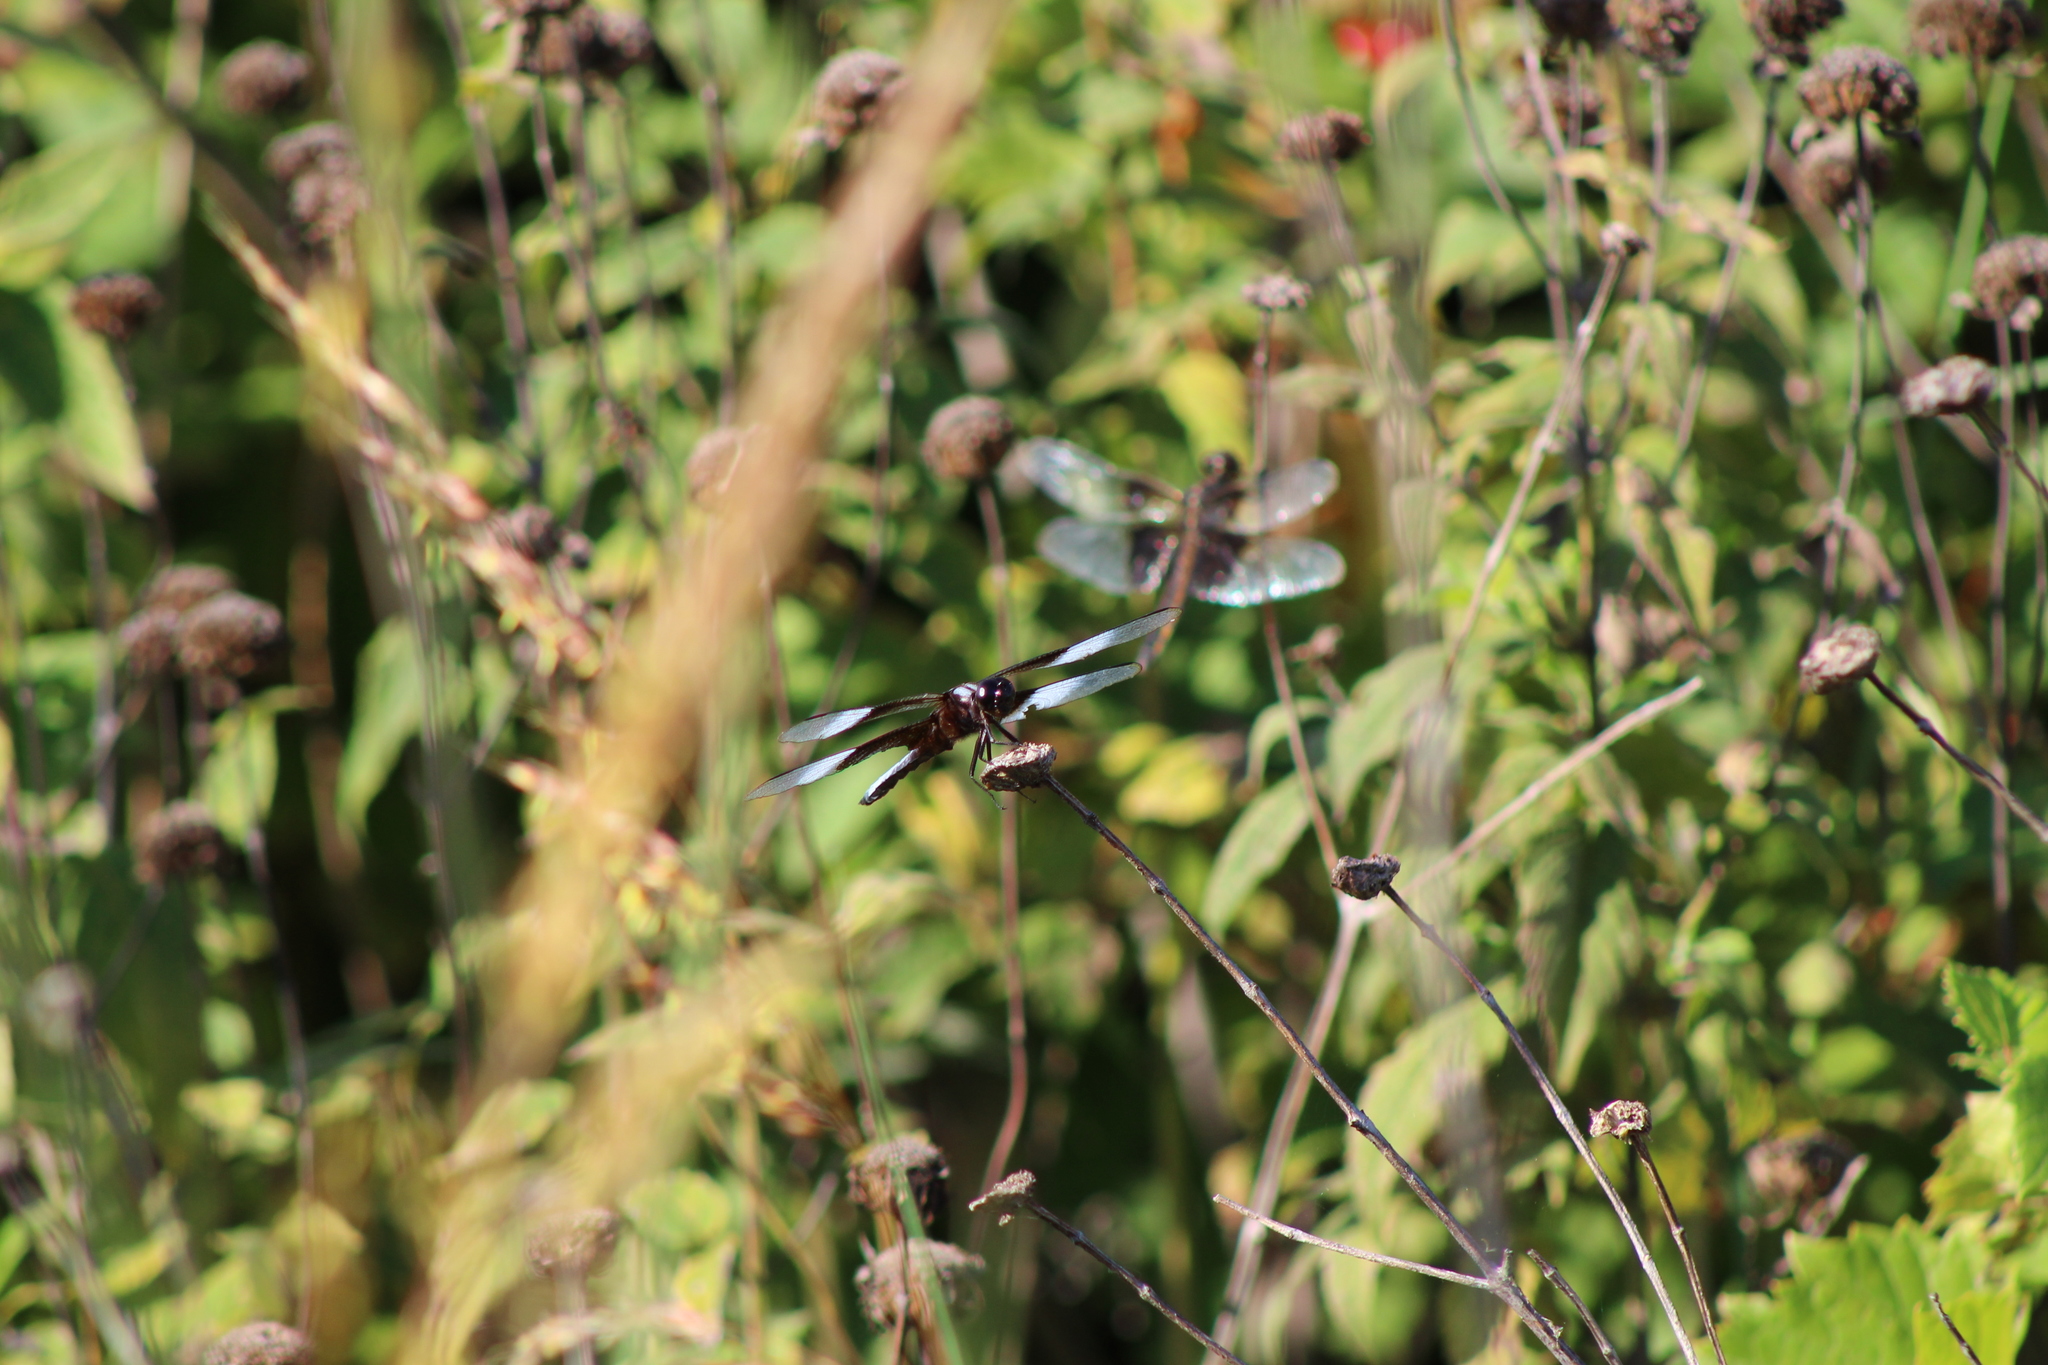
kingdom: Animalia
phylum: Arthropoda
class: Insecta
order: Odonata
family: Libellulidae
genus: Libellula
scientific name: Libellula luctuosa
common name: Widow skimmer
